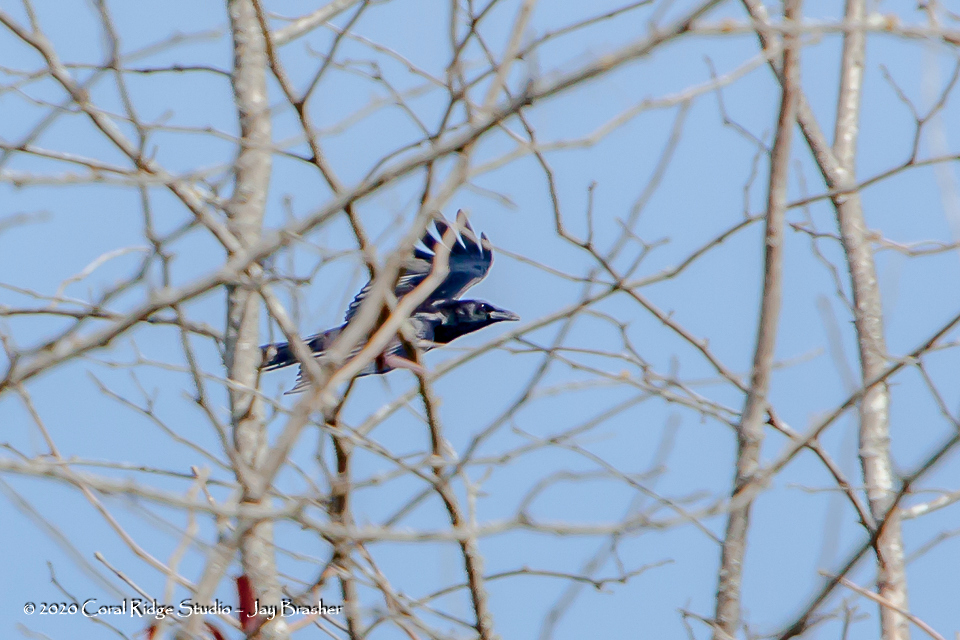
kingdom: Animalia
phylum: Chordata
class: Aves
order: Passeriformes
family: Corvidae
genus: Corvus
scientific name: Corvus brachyrhynchos
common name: American crow
